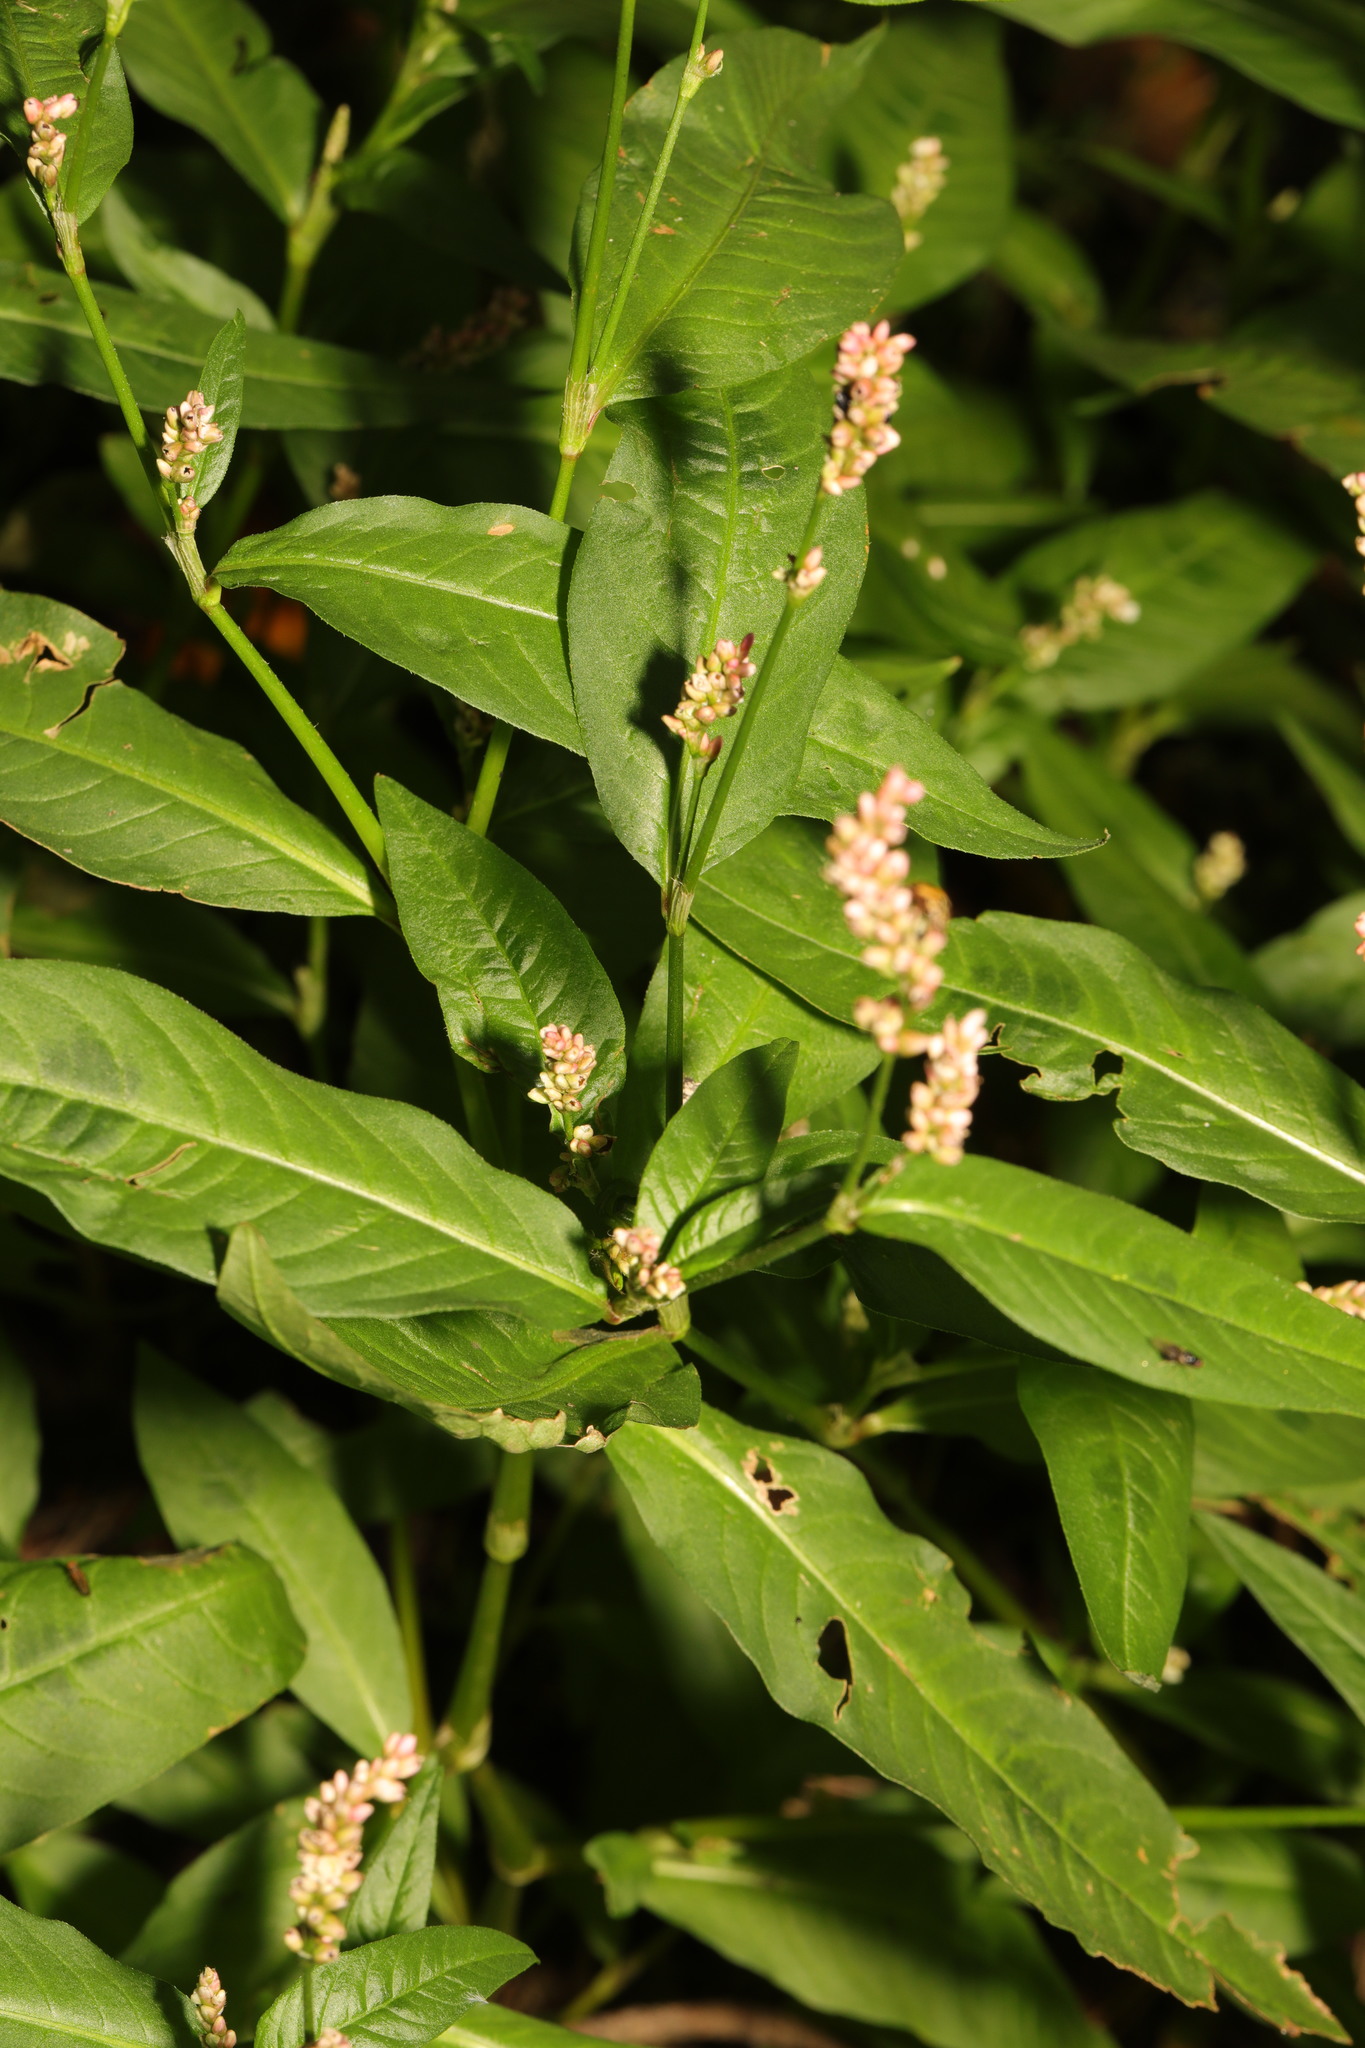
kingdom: Plantae
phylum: Tracheophyta
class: Magnoliopsida
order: Caryophyllales
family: Polygonaceae
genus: Persicaria
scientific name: Persicaria maculosa
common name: Redshank
